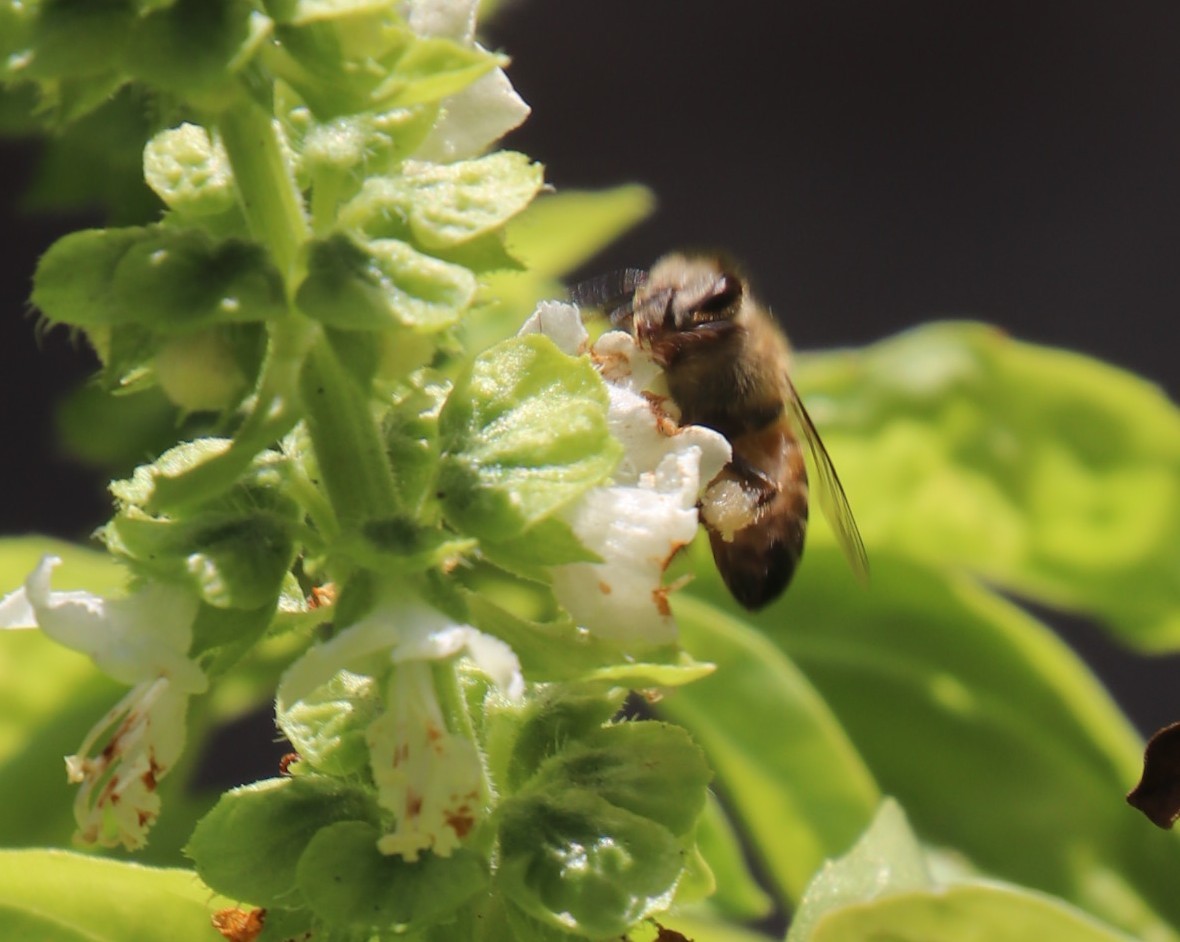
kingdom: Animalia
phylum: Arthropoda
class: Insecta
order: Hymenoptera
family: Apidae
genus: Apis
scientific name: Apis mellifera
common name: Honey bee
